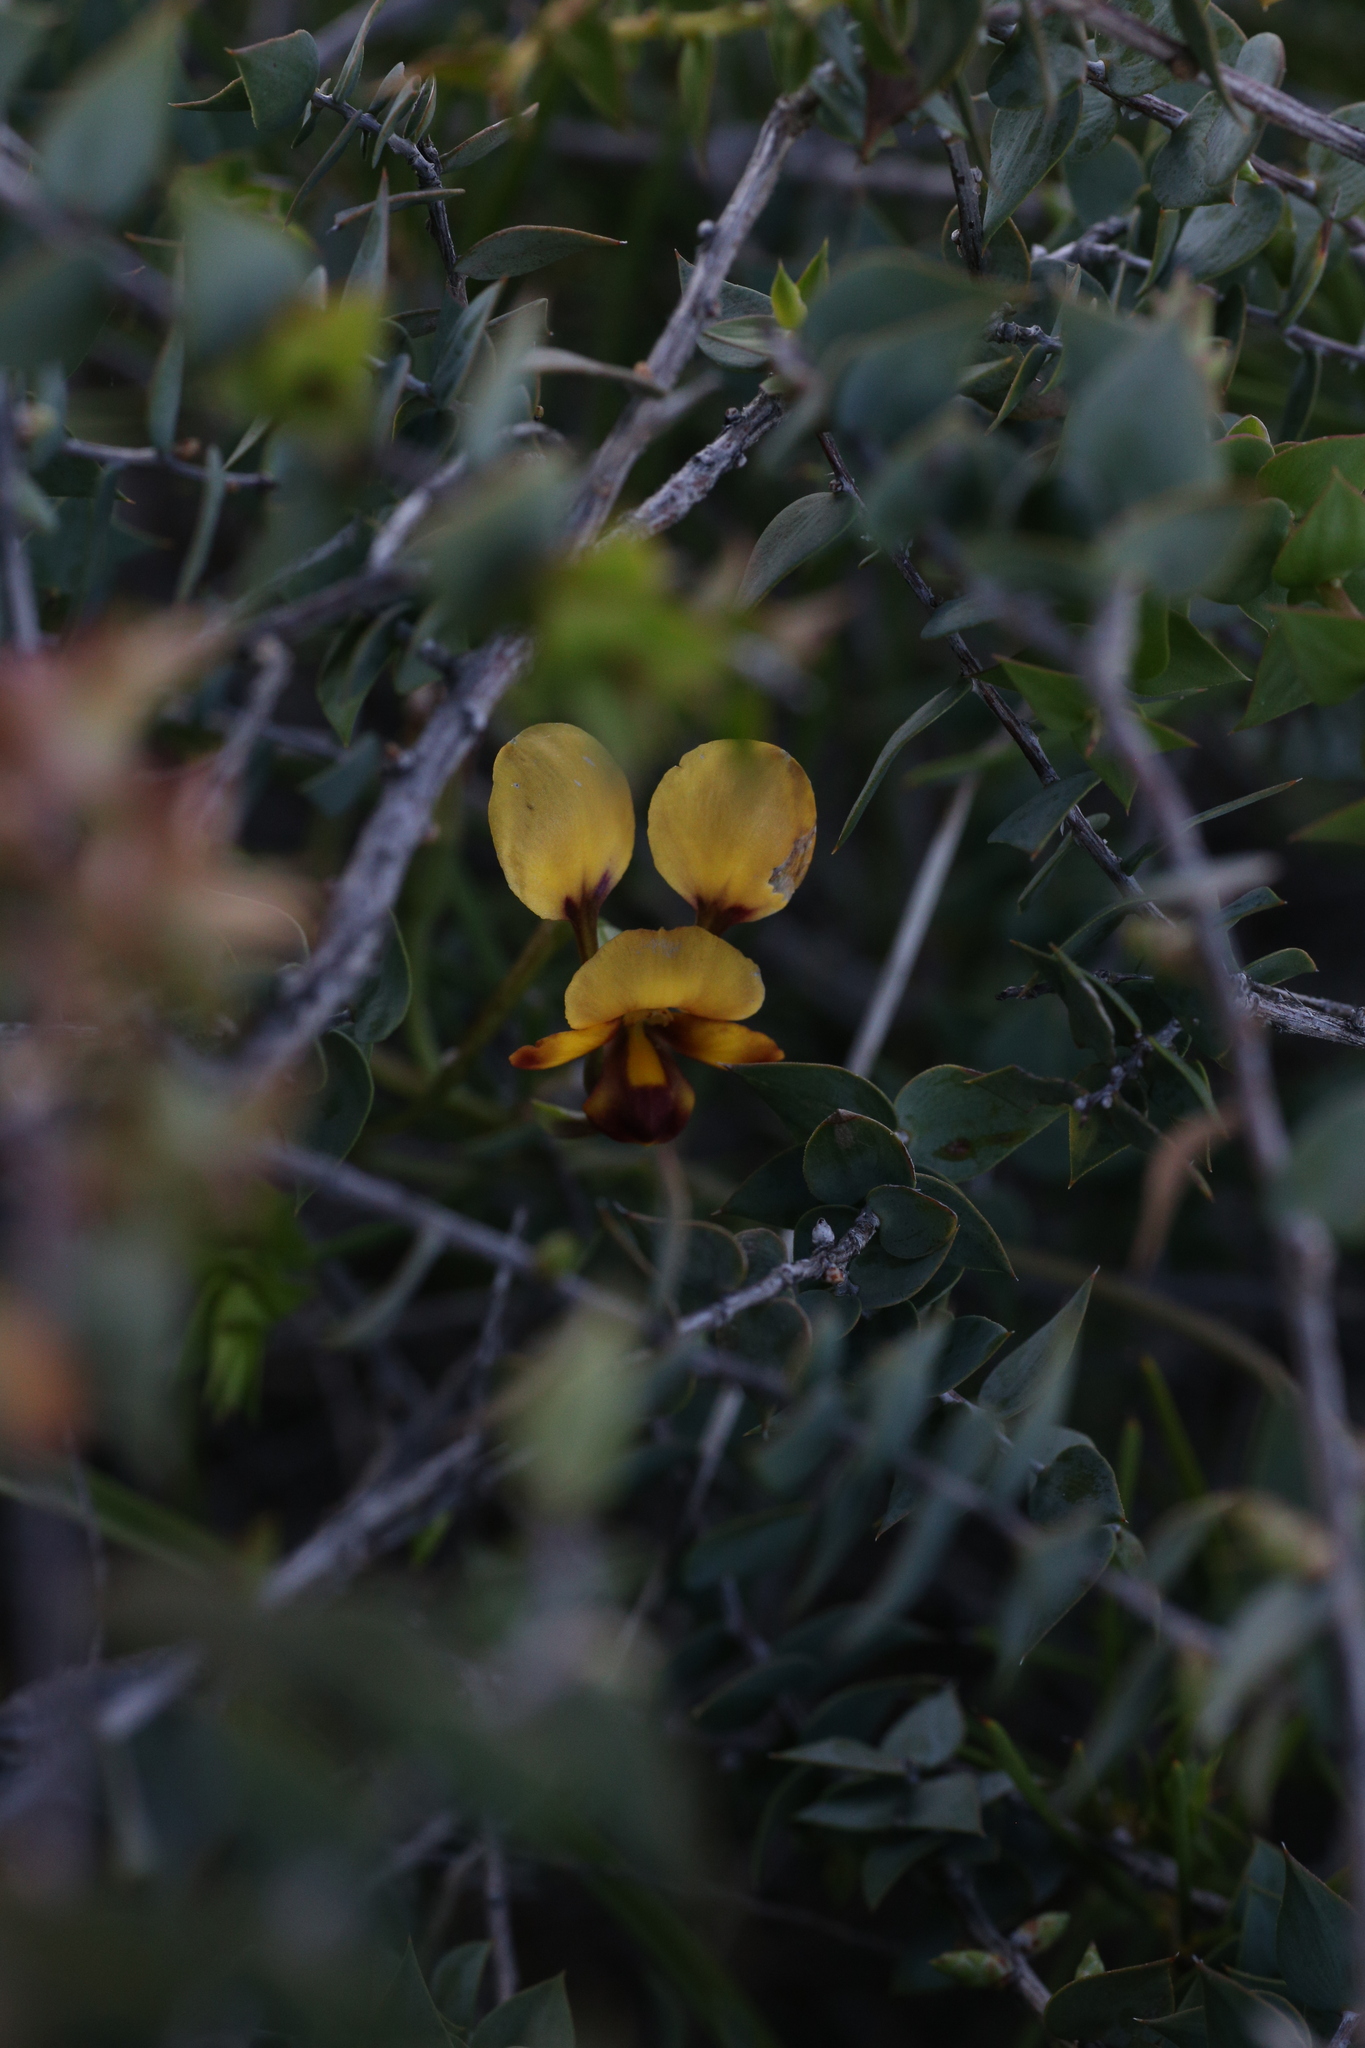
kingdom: Plantae
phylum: Tracheophyta
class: Liliopsida
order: Asparagales
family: Orchidaceae
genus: Diuris
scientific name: Diuris oraria
